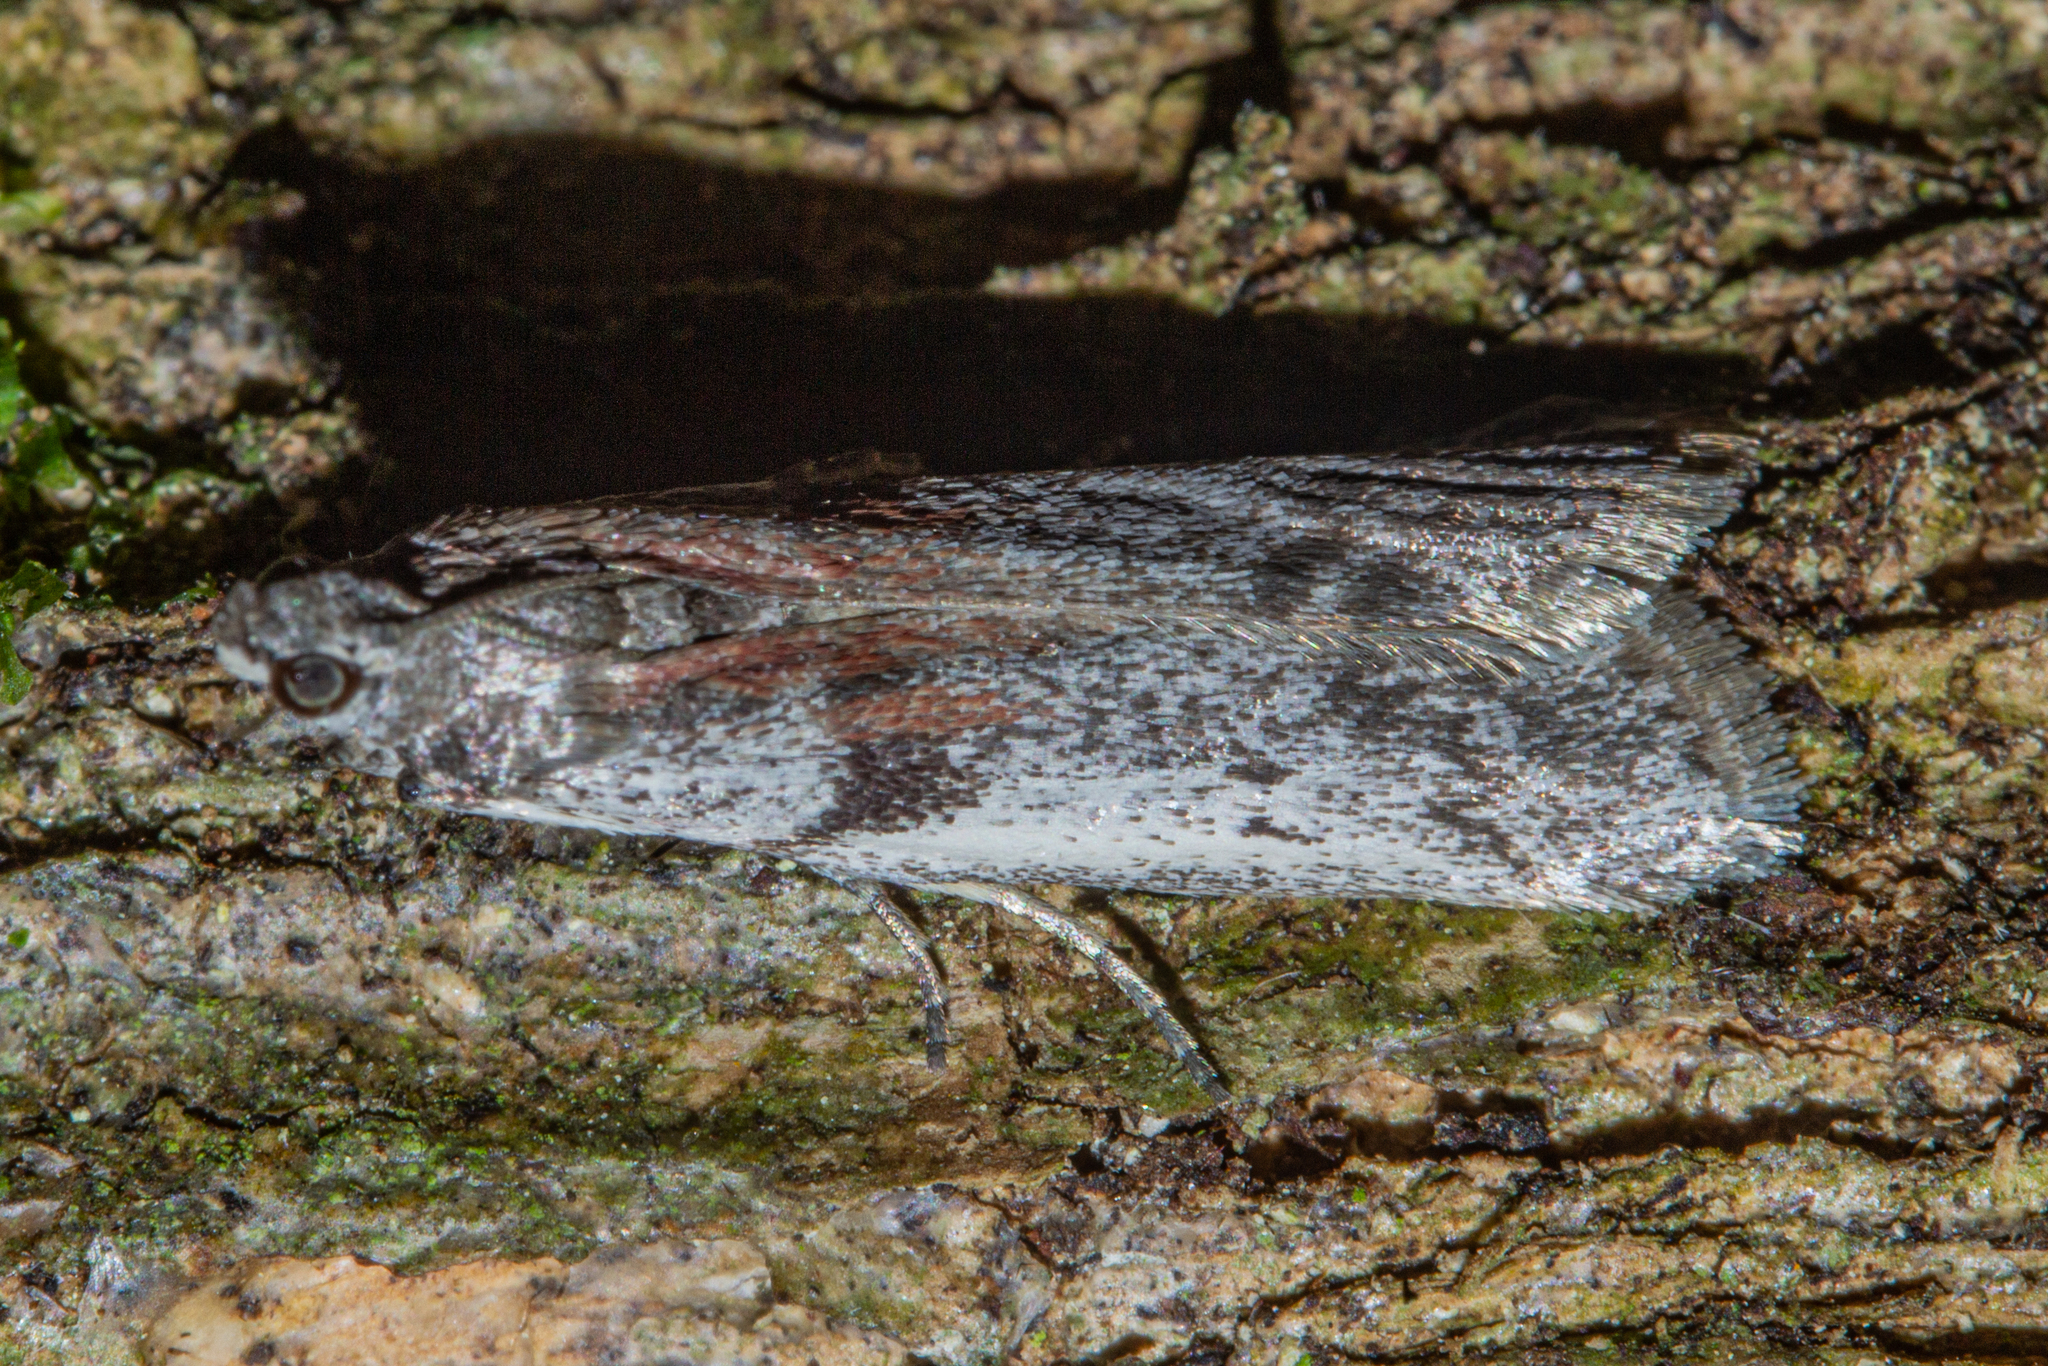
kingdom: Animalia
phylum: Arthropoda
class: Insecta
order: Lepidoptera
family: Pyralidae
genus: Patagoniodes
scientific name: Patagoniodes farinaria
